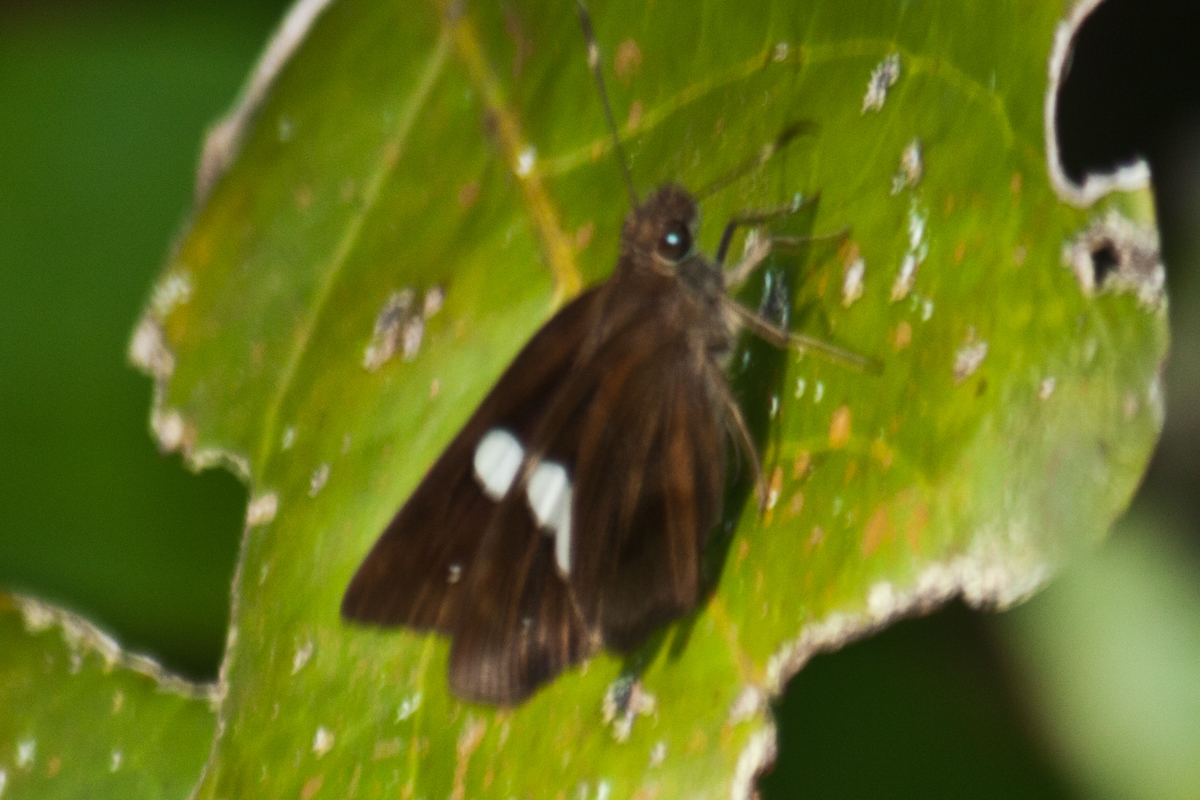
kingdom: Animalia
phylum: Arthropoda
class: Insecta
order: Lepidoptera
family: Hesperiidae
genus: Notocrypta
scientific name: Notocrypta paralysos
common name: Common banded demon
